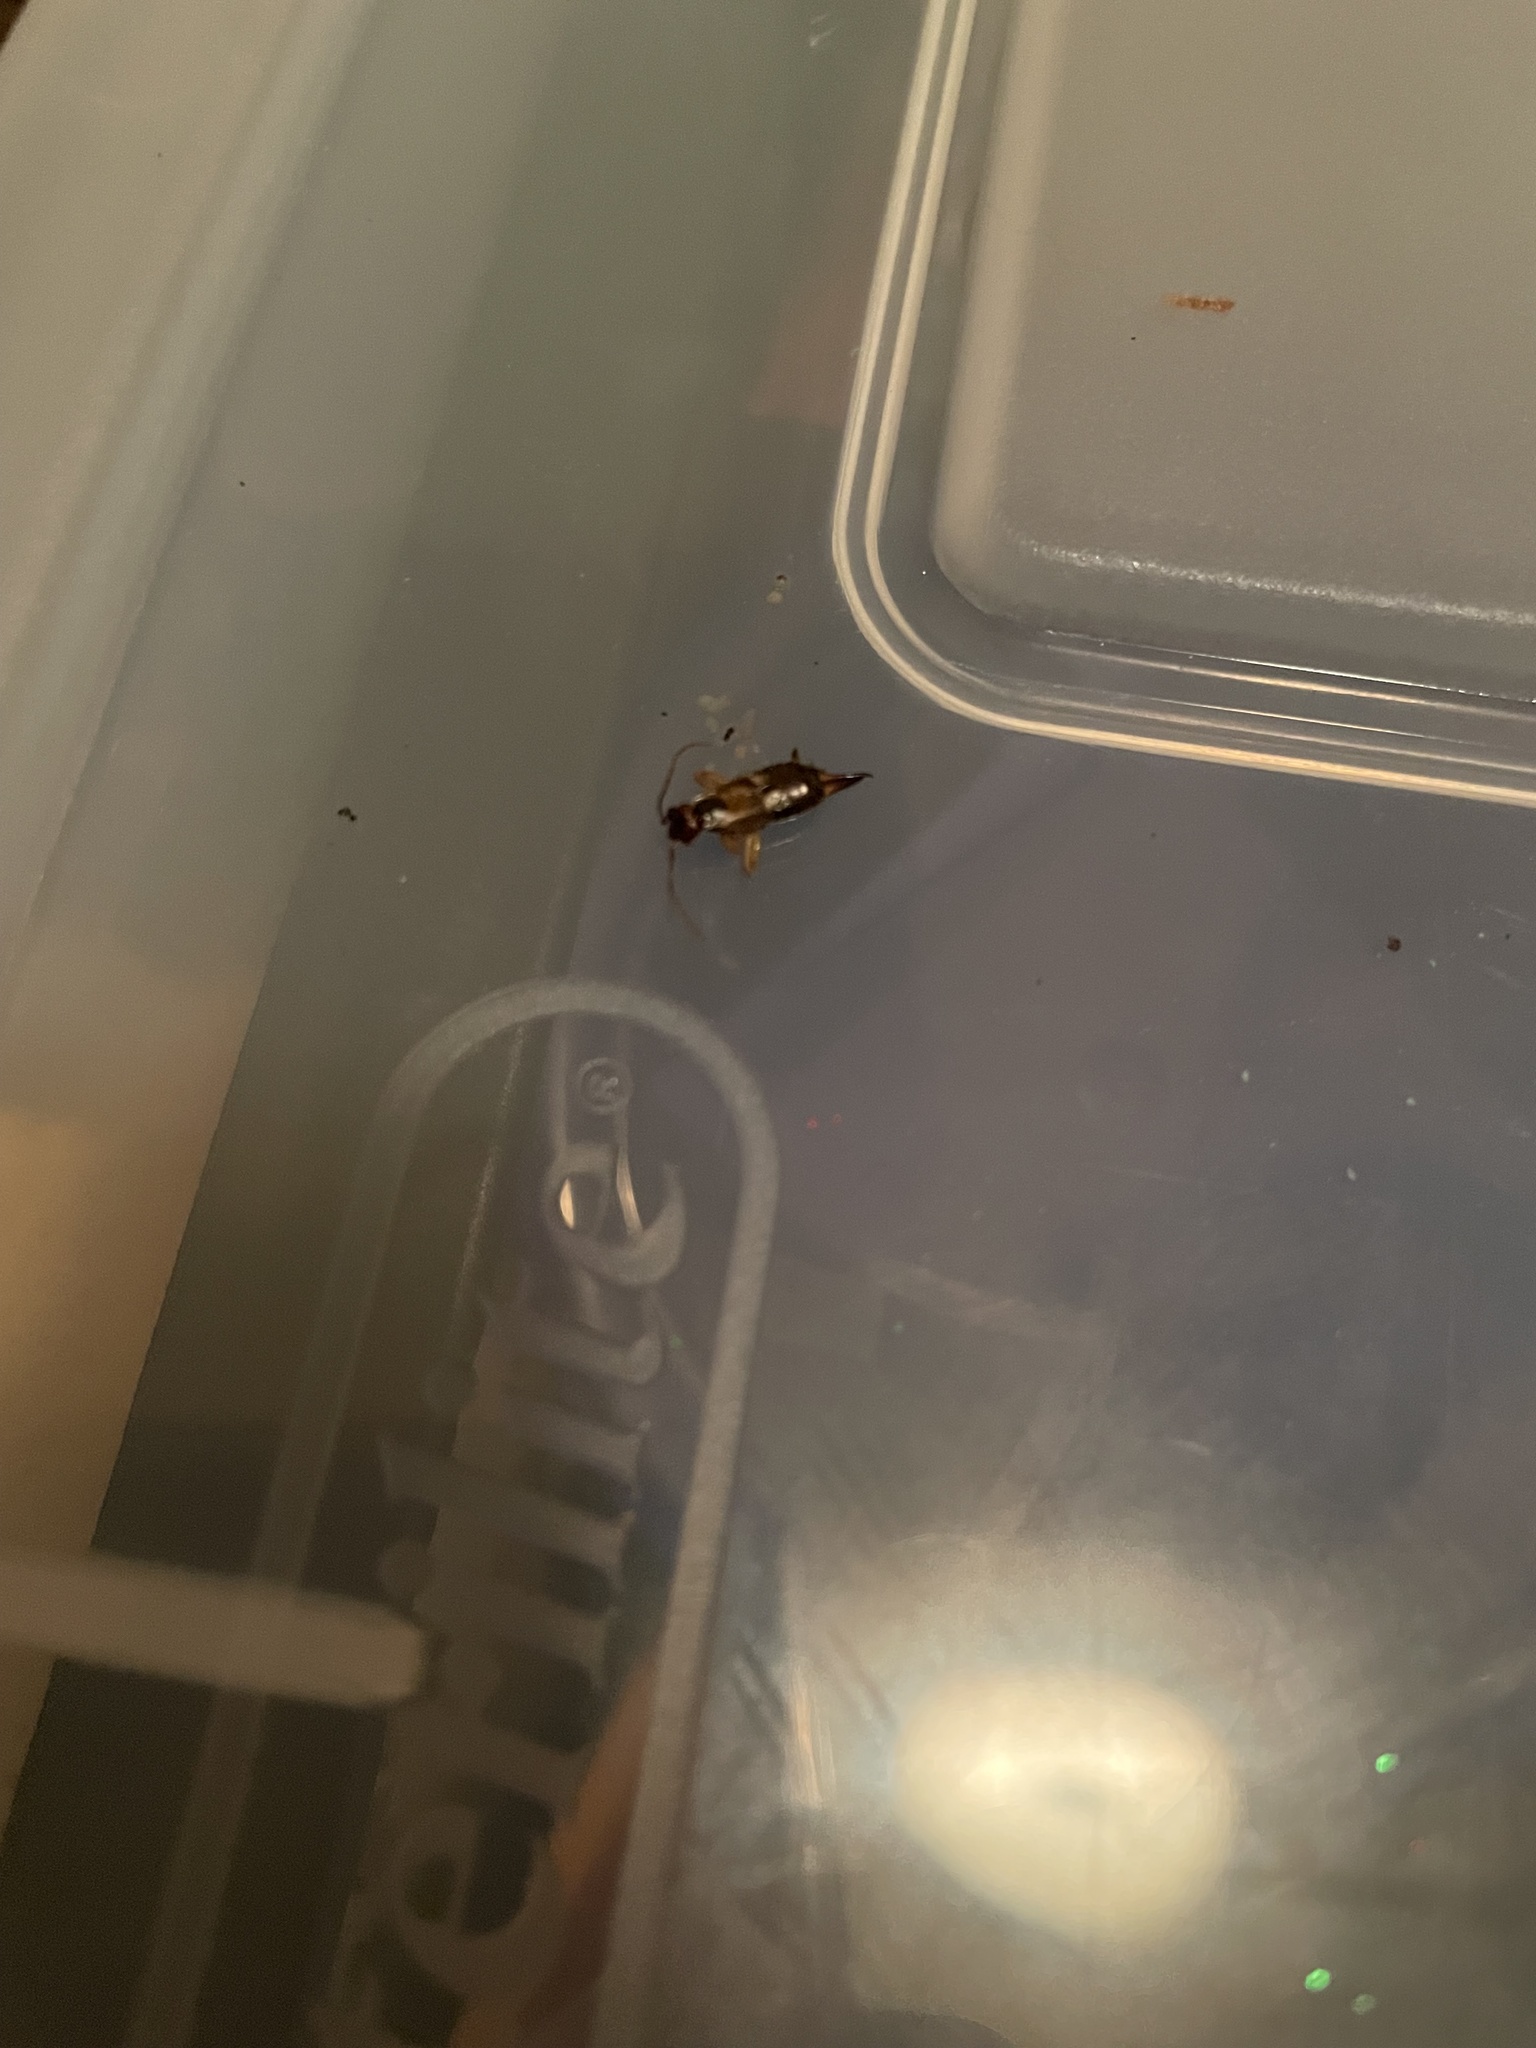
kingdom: Animalia
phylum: Arthropoda
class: Insecta
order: Dermaptera
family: Forficulidae
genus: Forficula
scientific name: Forficula
